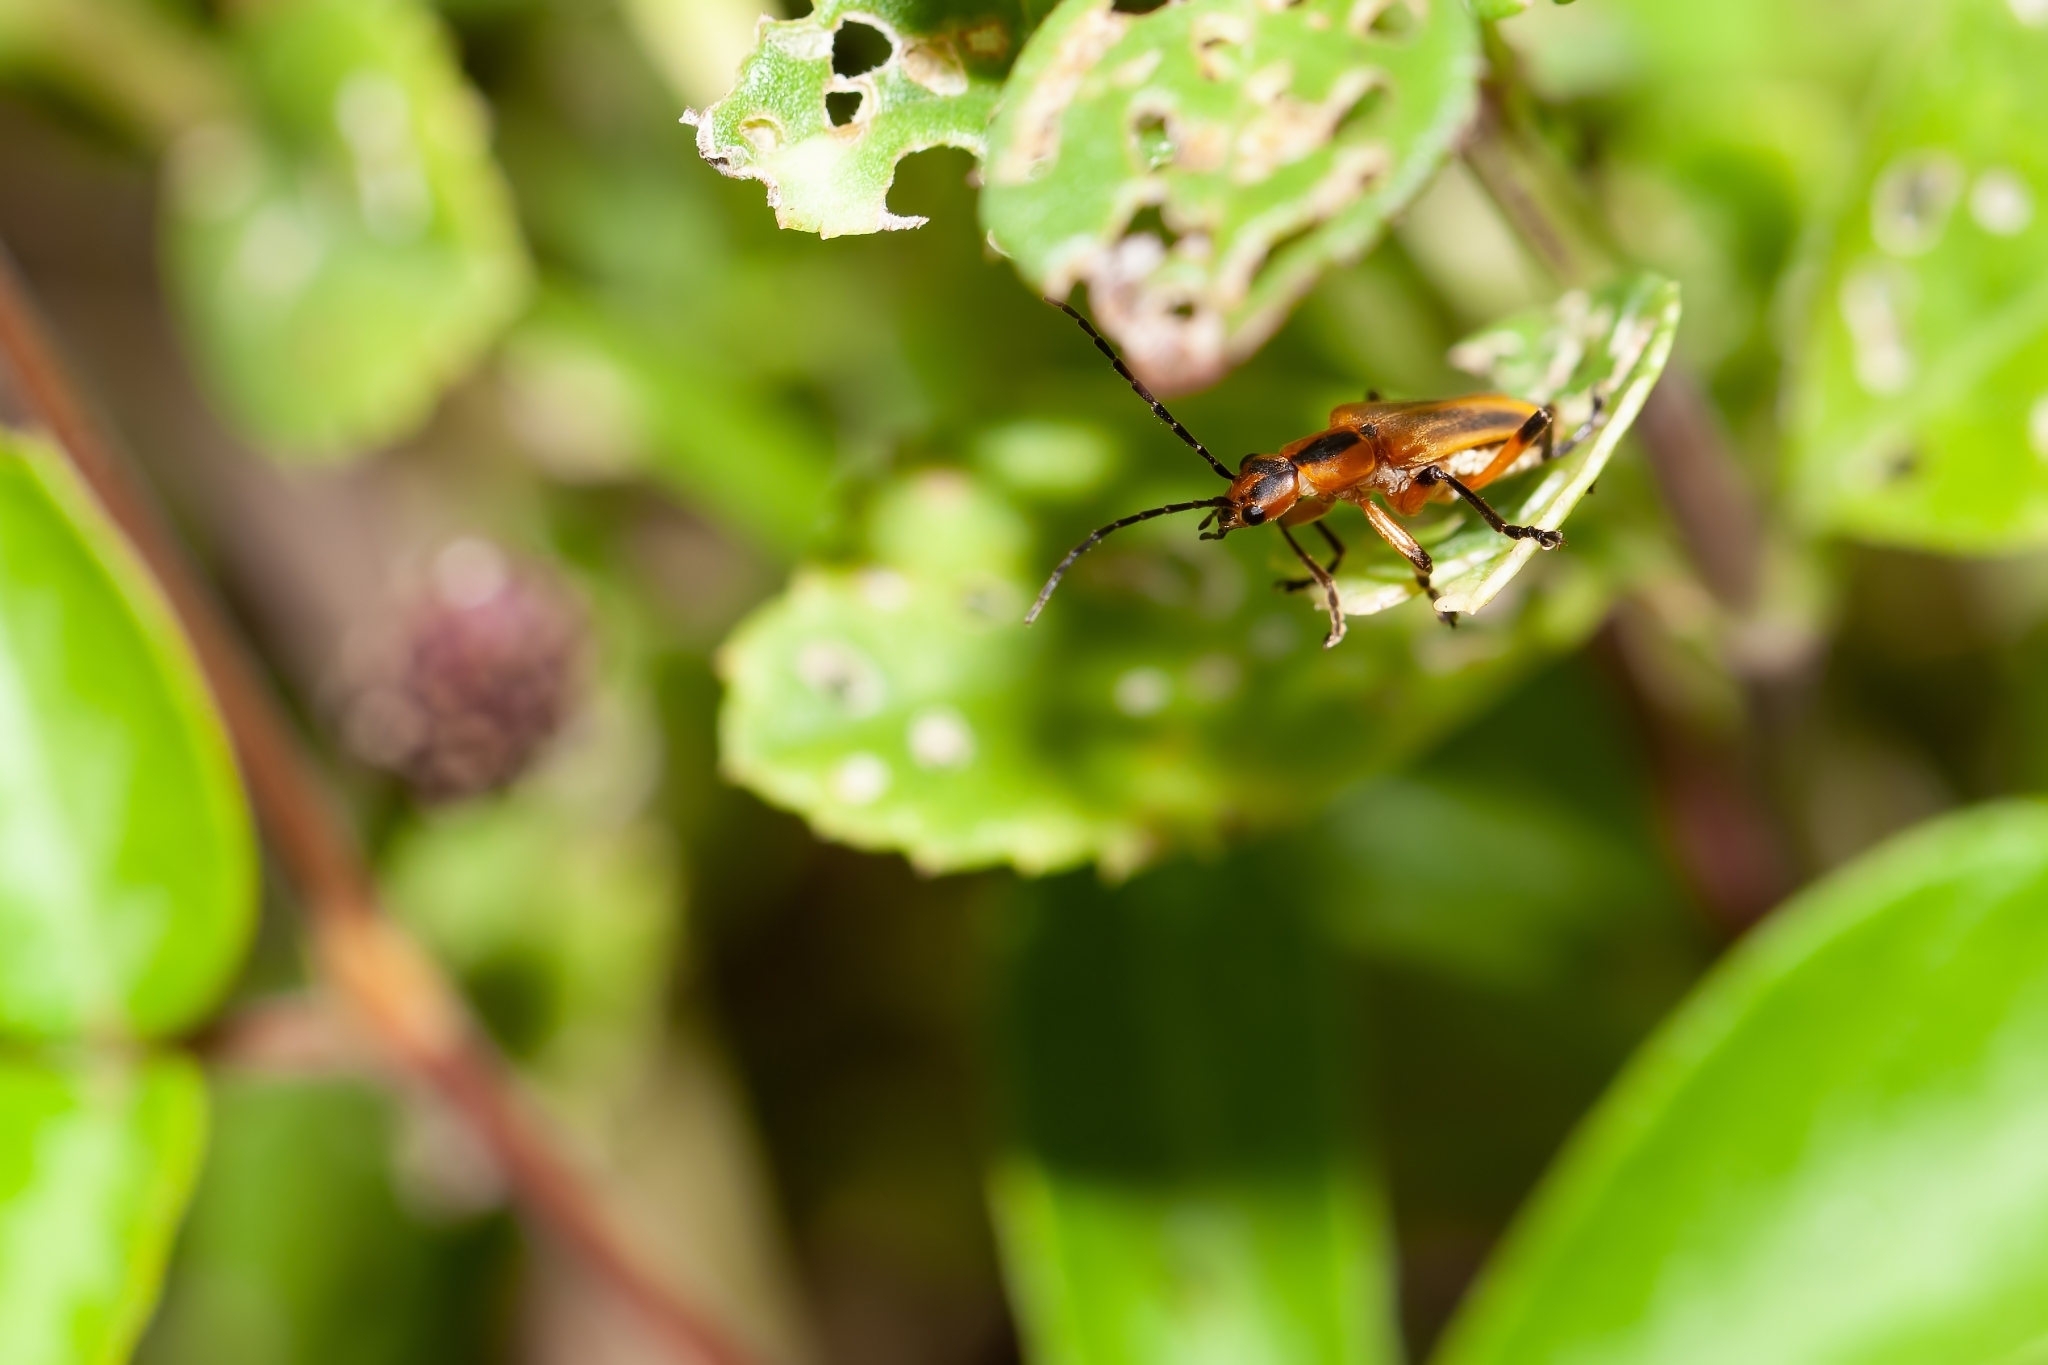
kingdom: Animalia
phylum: Arthropoda
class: Insecta
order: Coleoptera
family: Cantharidae
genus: Chauliognathus
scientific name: Chauliognathus marginatus
